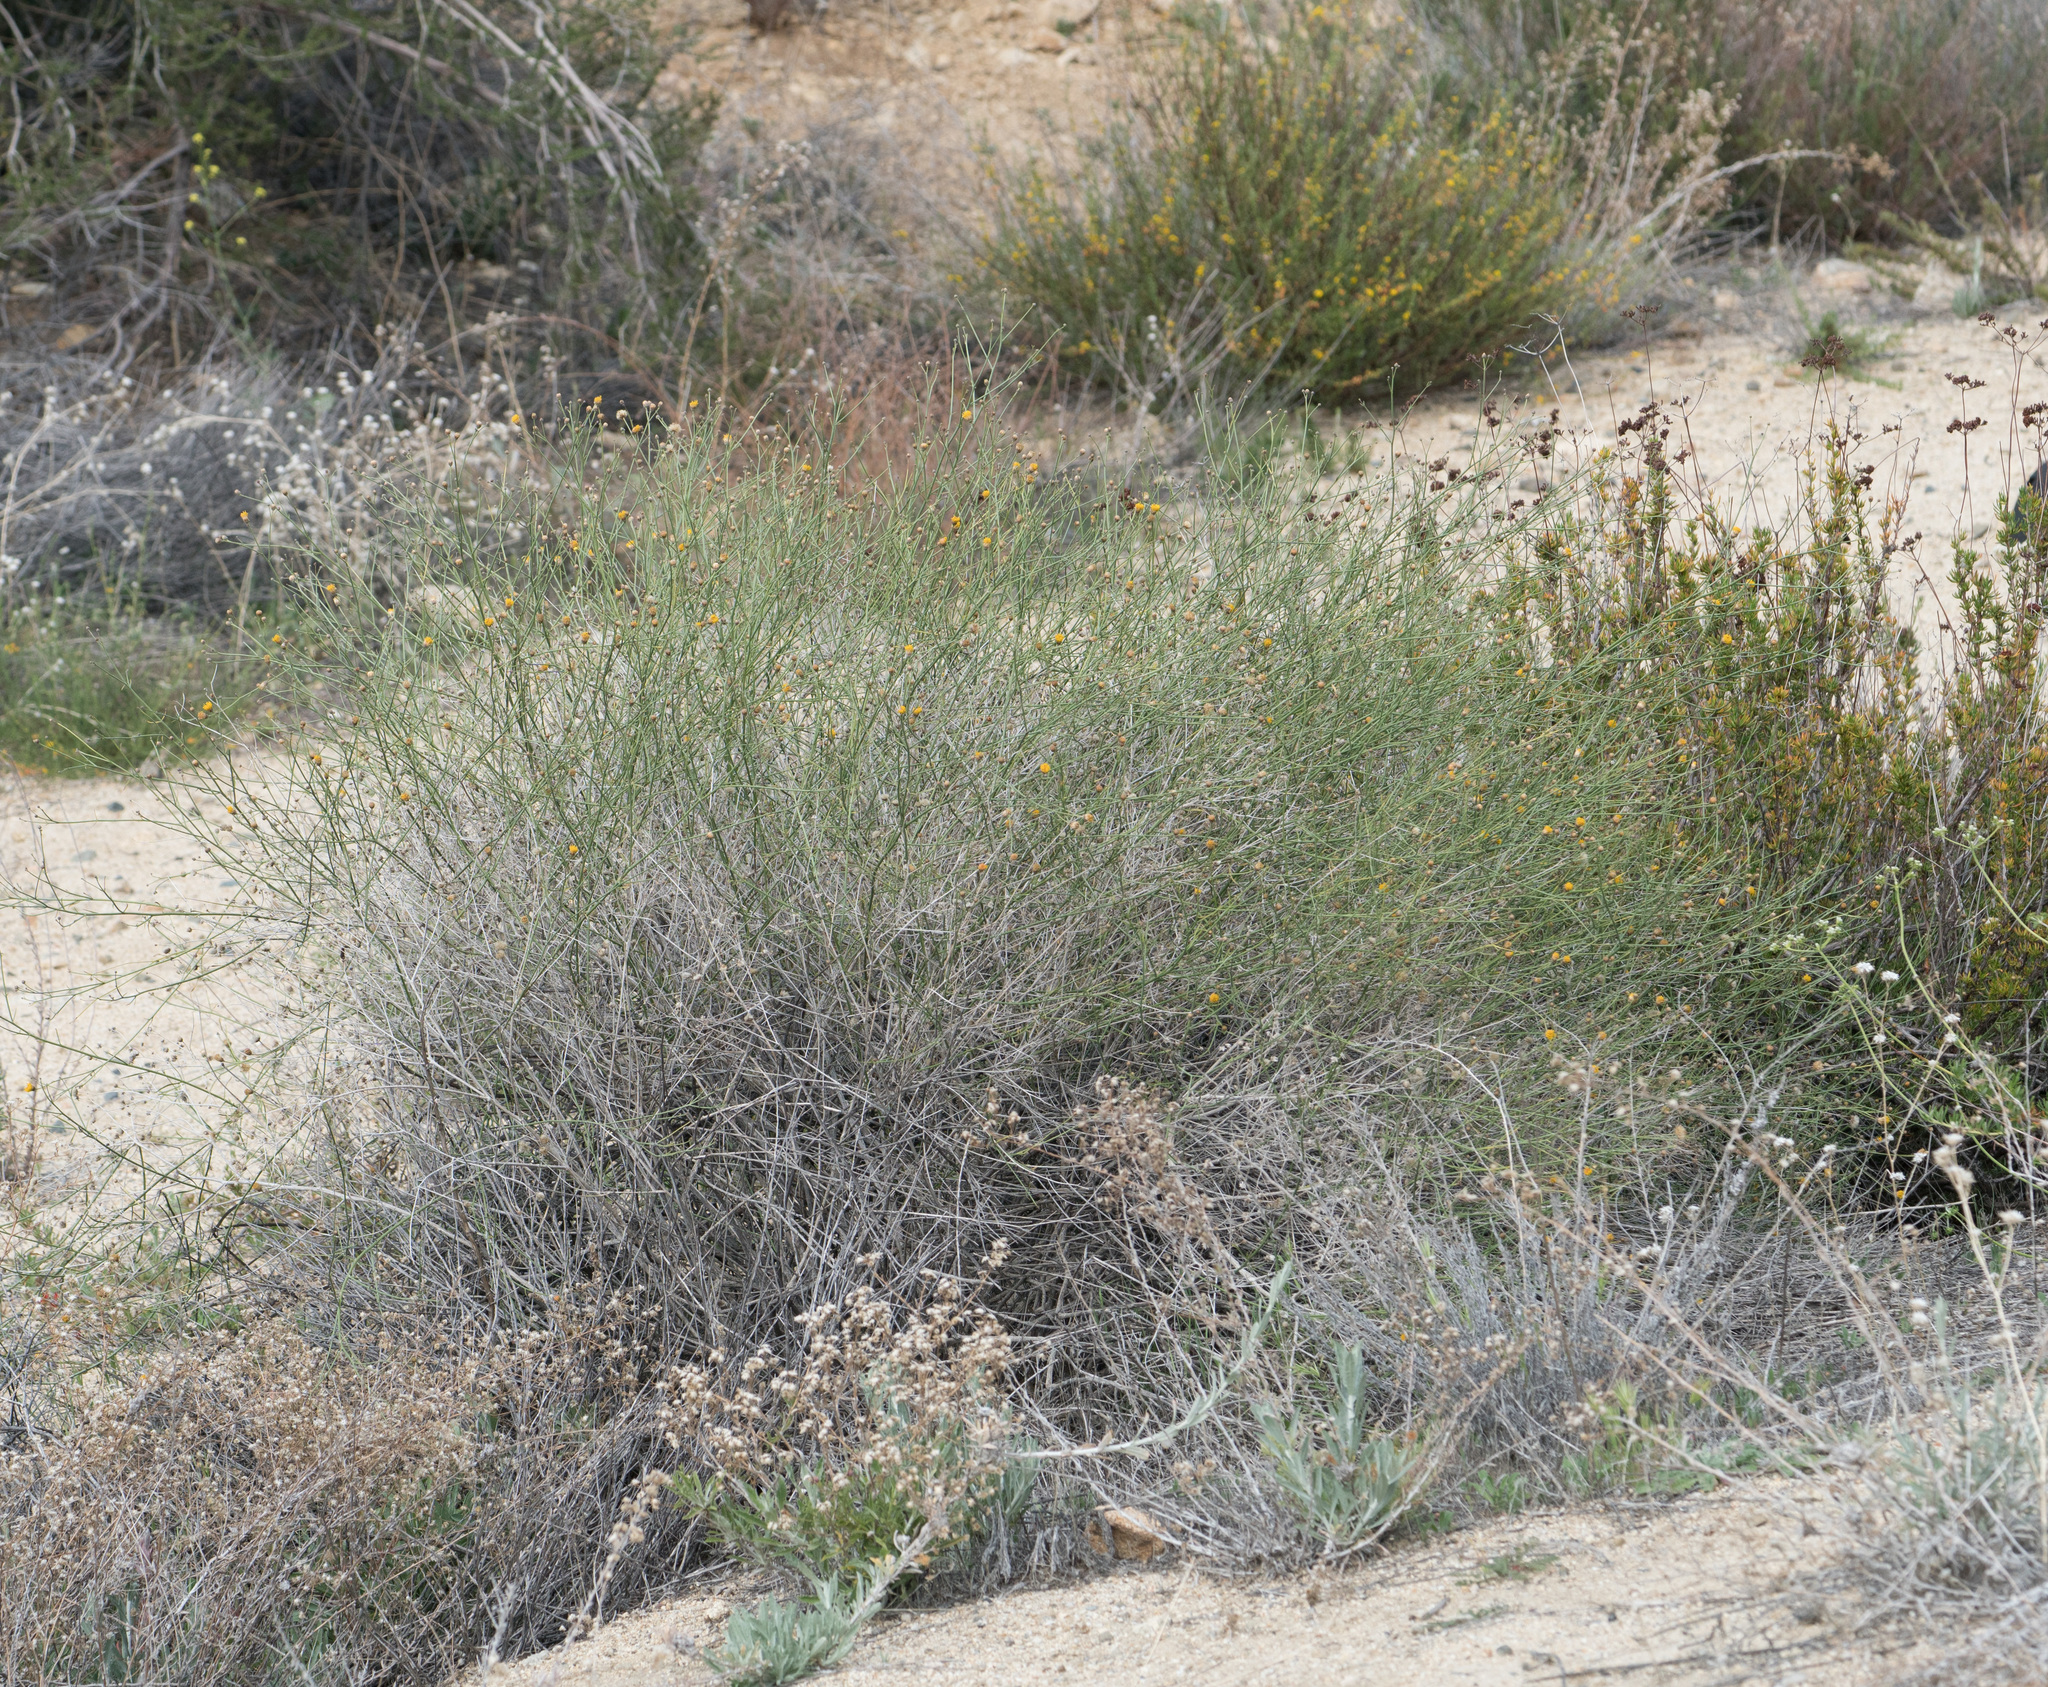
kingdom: Plantae
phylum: Tracheophyta
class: Magnoliopsida
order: Asterales
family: Asteraceae
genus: Bebbia
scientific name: Bebbia juncea
